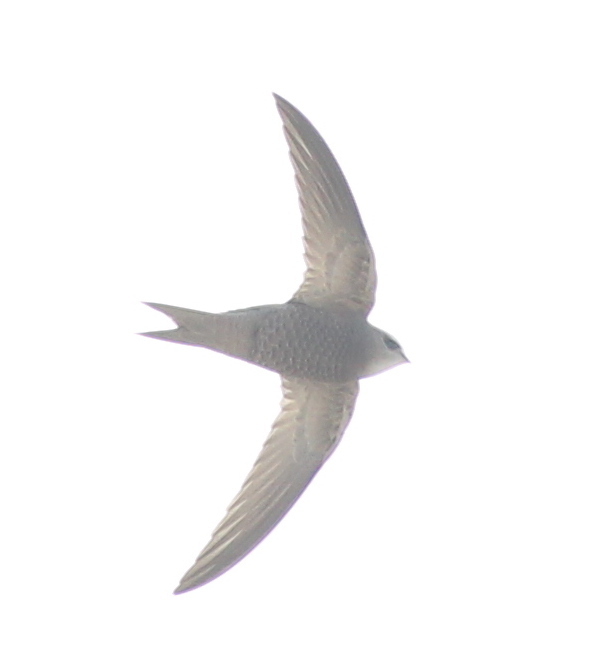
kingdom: Animalia
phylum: Chordata
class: Aves
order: Apodiformes
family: Apodidae
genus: Apus
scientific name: Apus pallidus
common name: Pallid swift
